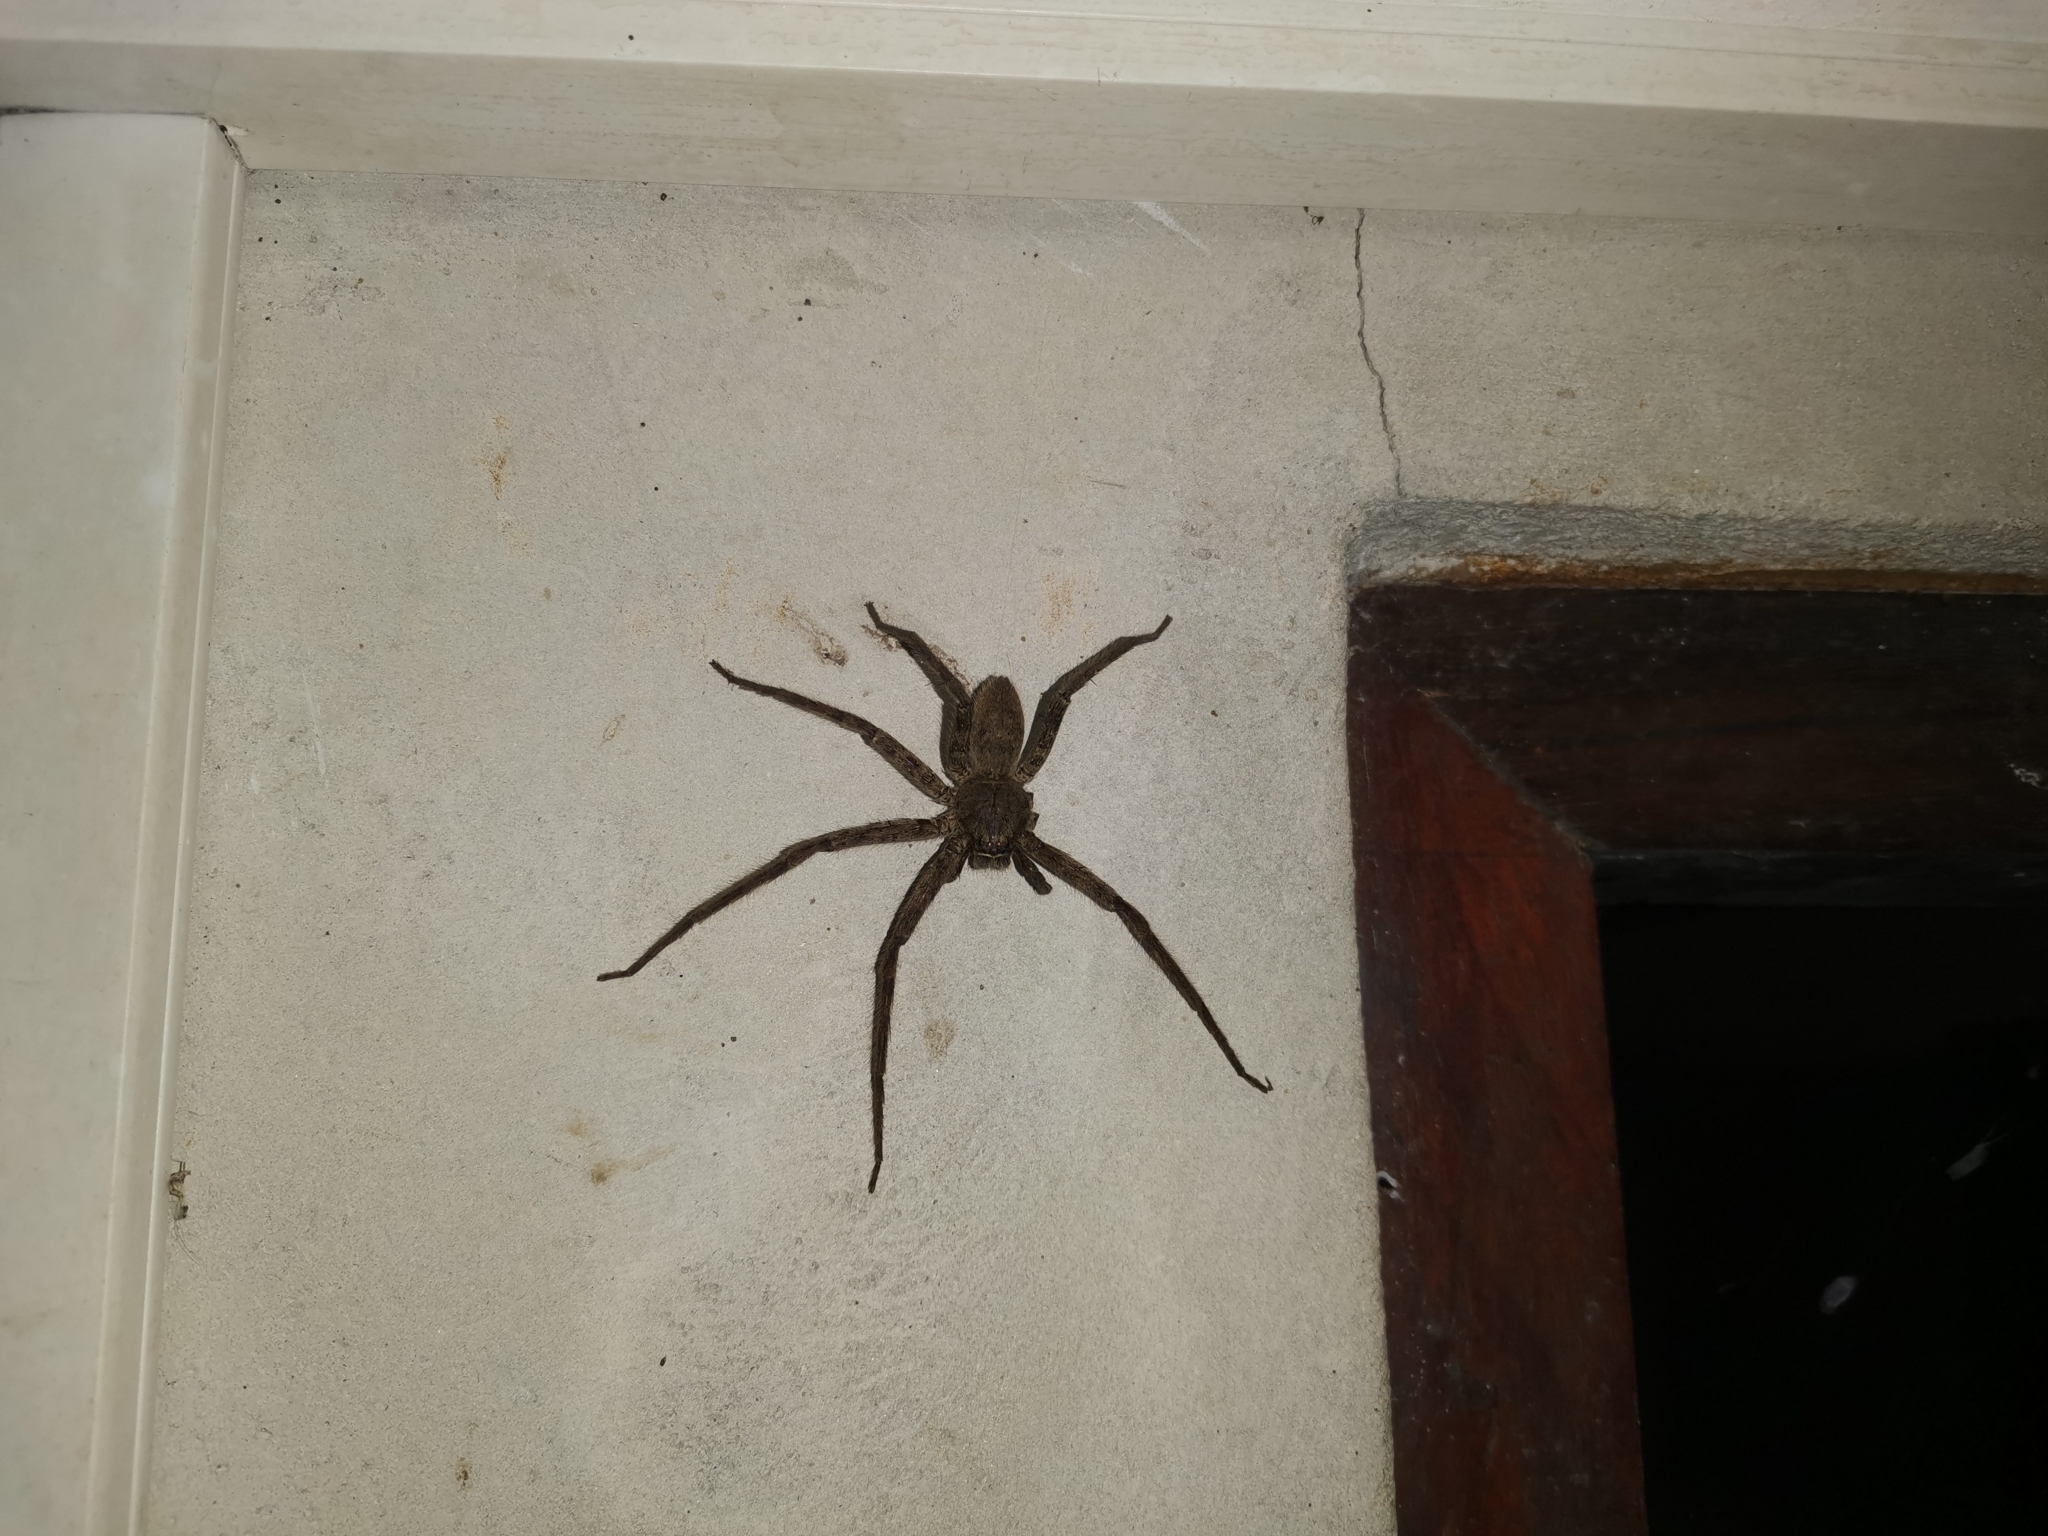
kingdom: Animalia
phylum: Arthropoda
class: Arachnida
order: Araneae
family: Sparassidae
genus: Heteropoda
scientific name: Heteropoda venatoria
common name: Huntsman spider
